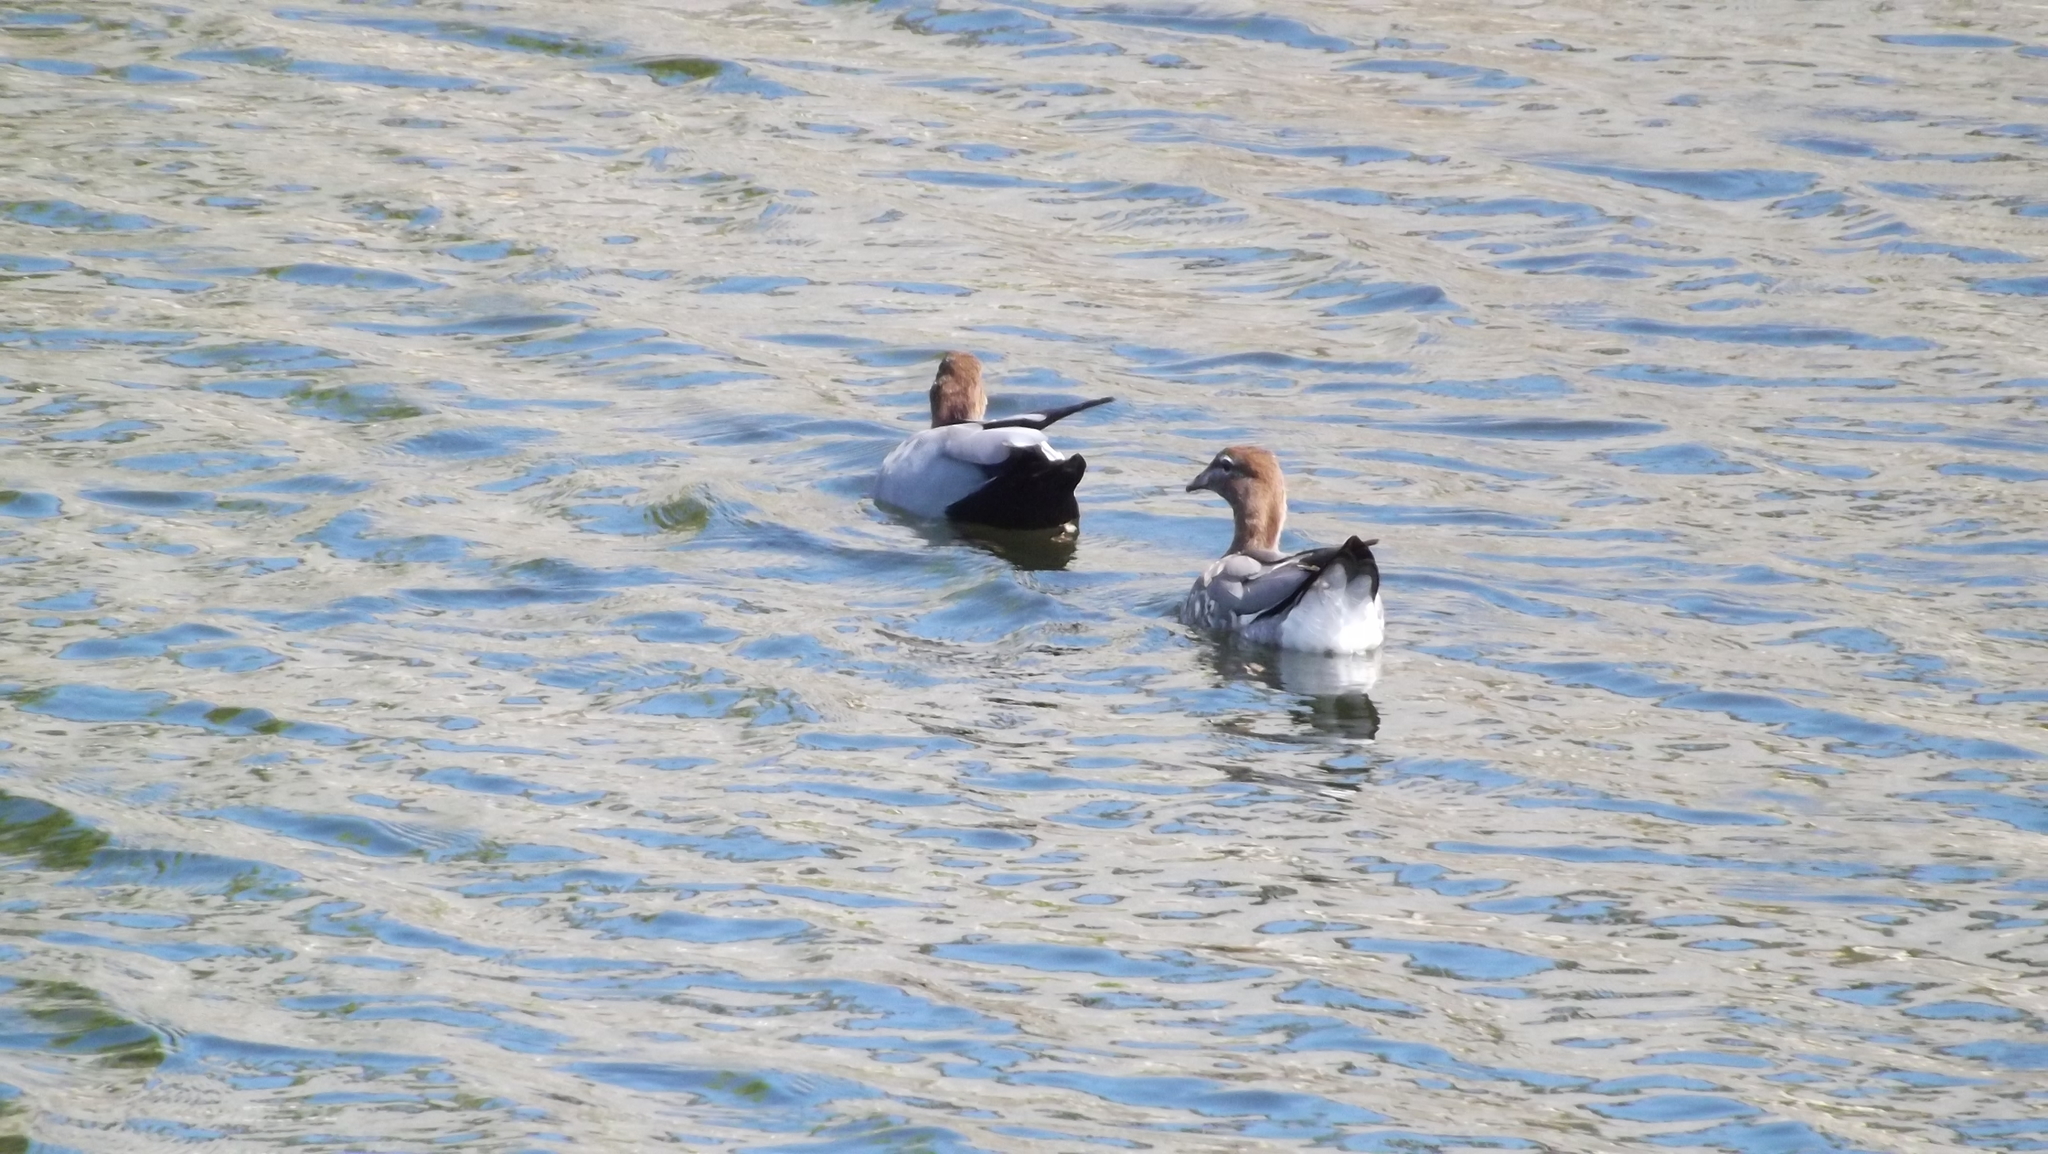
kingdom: Animalia
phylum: Chordata
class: Aves
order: Anseriformes
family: Anatidae
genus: Chenonetta
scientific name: Chenonetta jubata
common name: Maned duck
